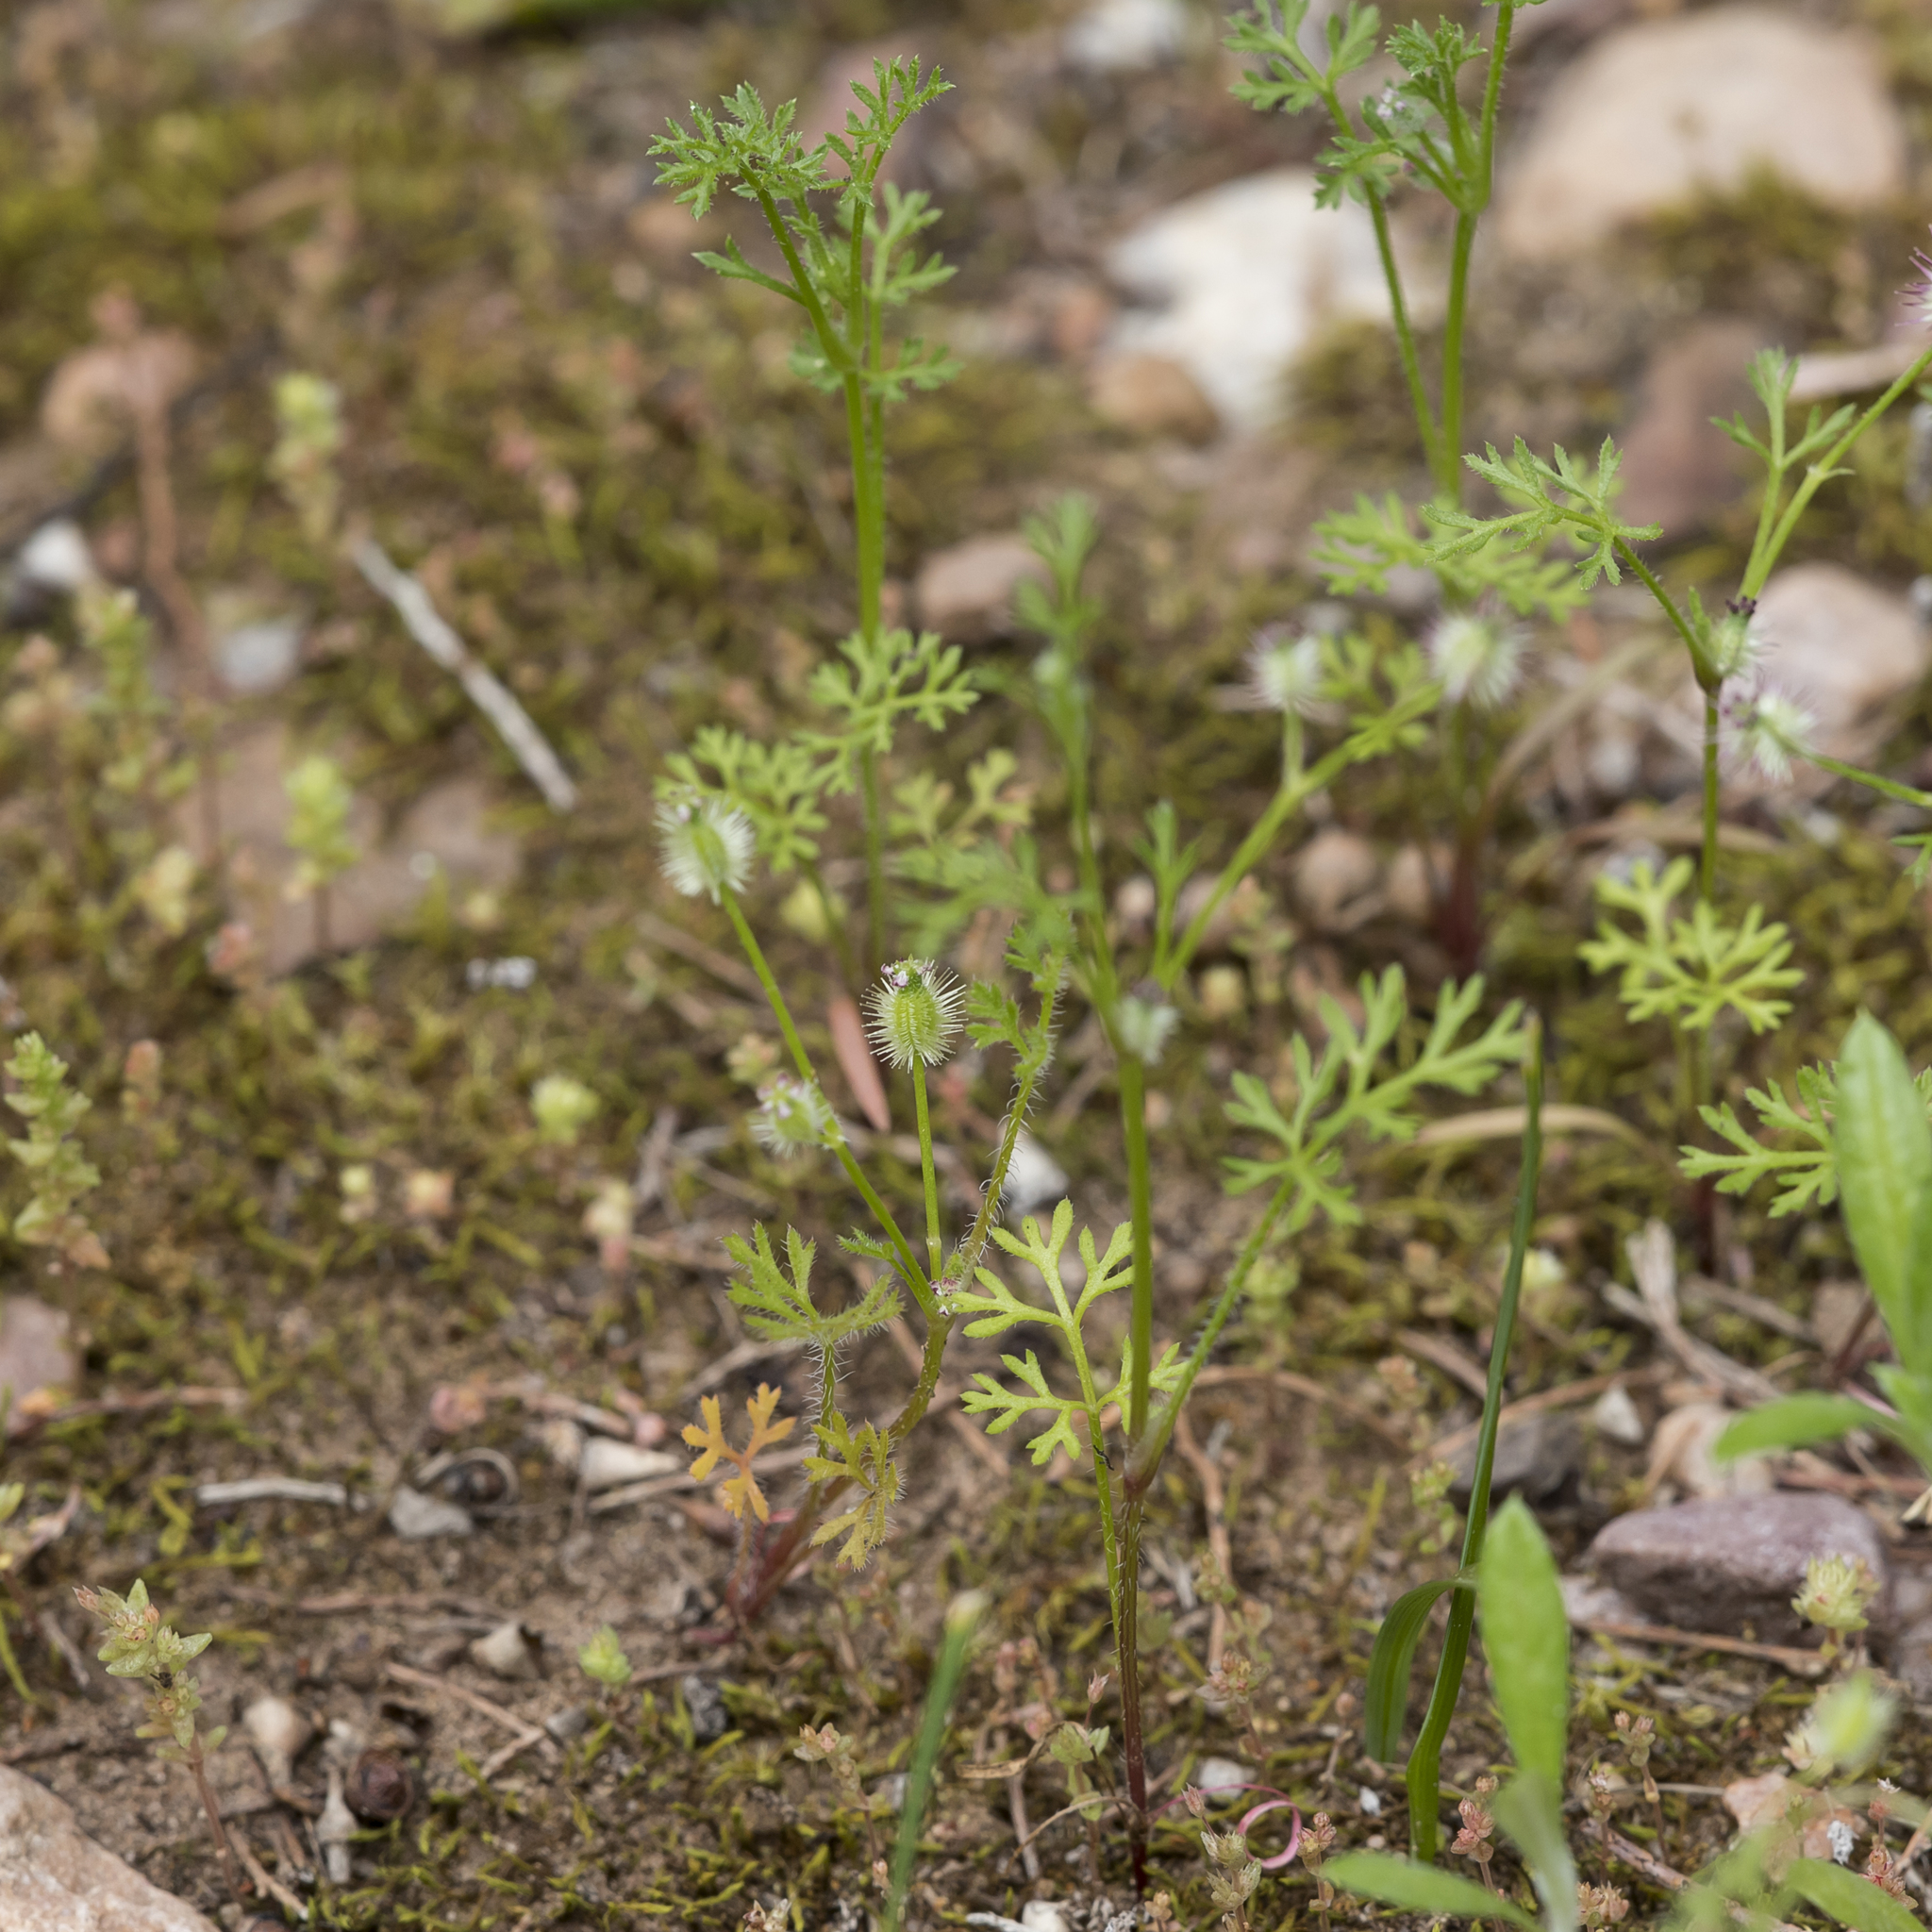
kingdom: Plantae
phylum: Tracheophyta
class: Magnoliopsida
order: Apiales
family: Apiaceae
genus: Daucus
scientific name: Daucus glochidiatus
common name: Australian carrot
